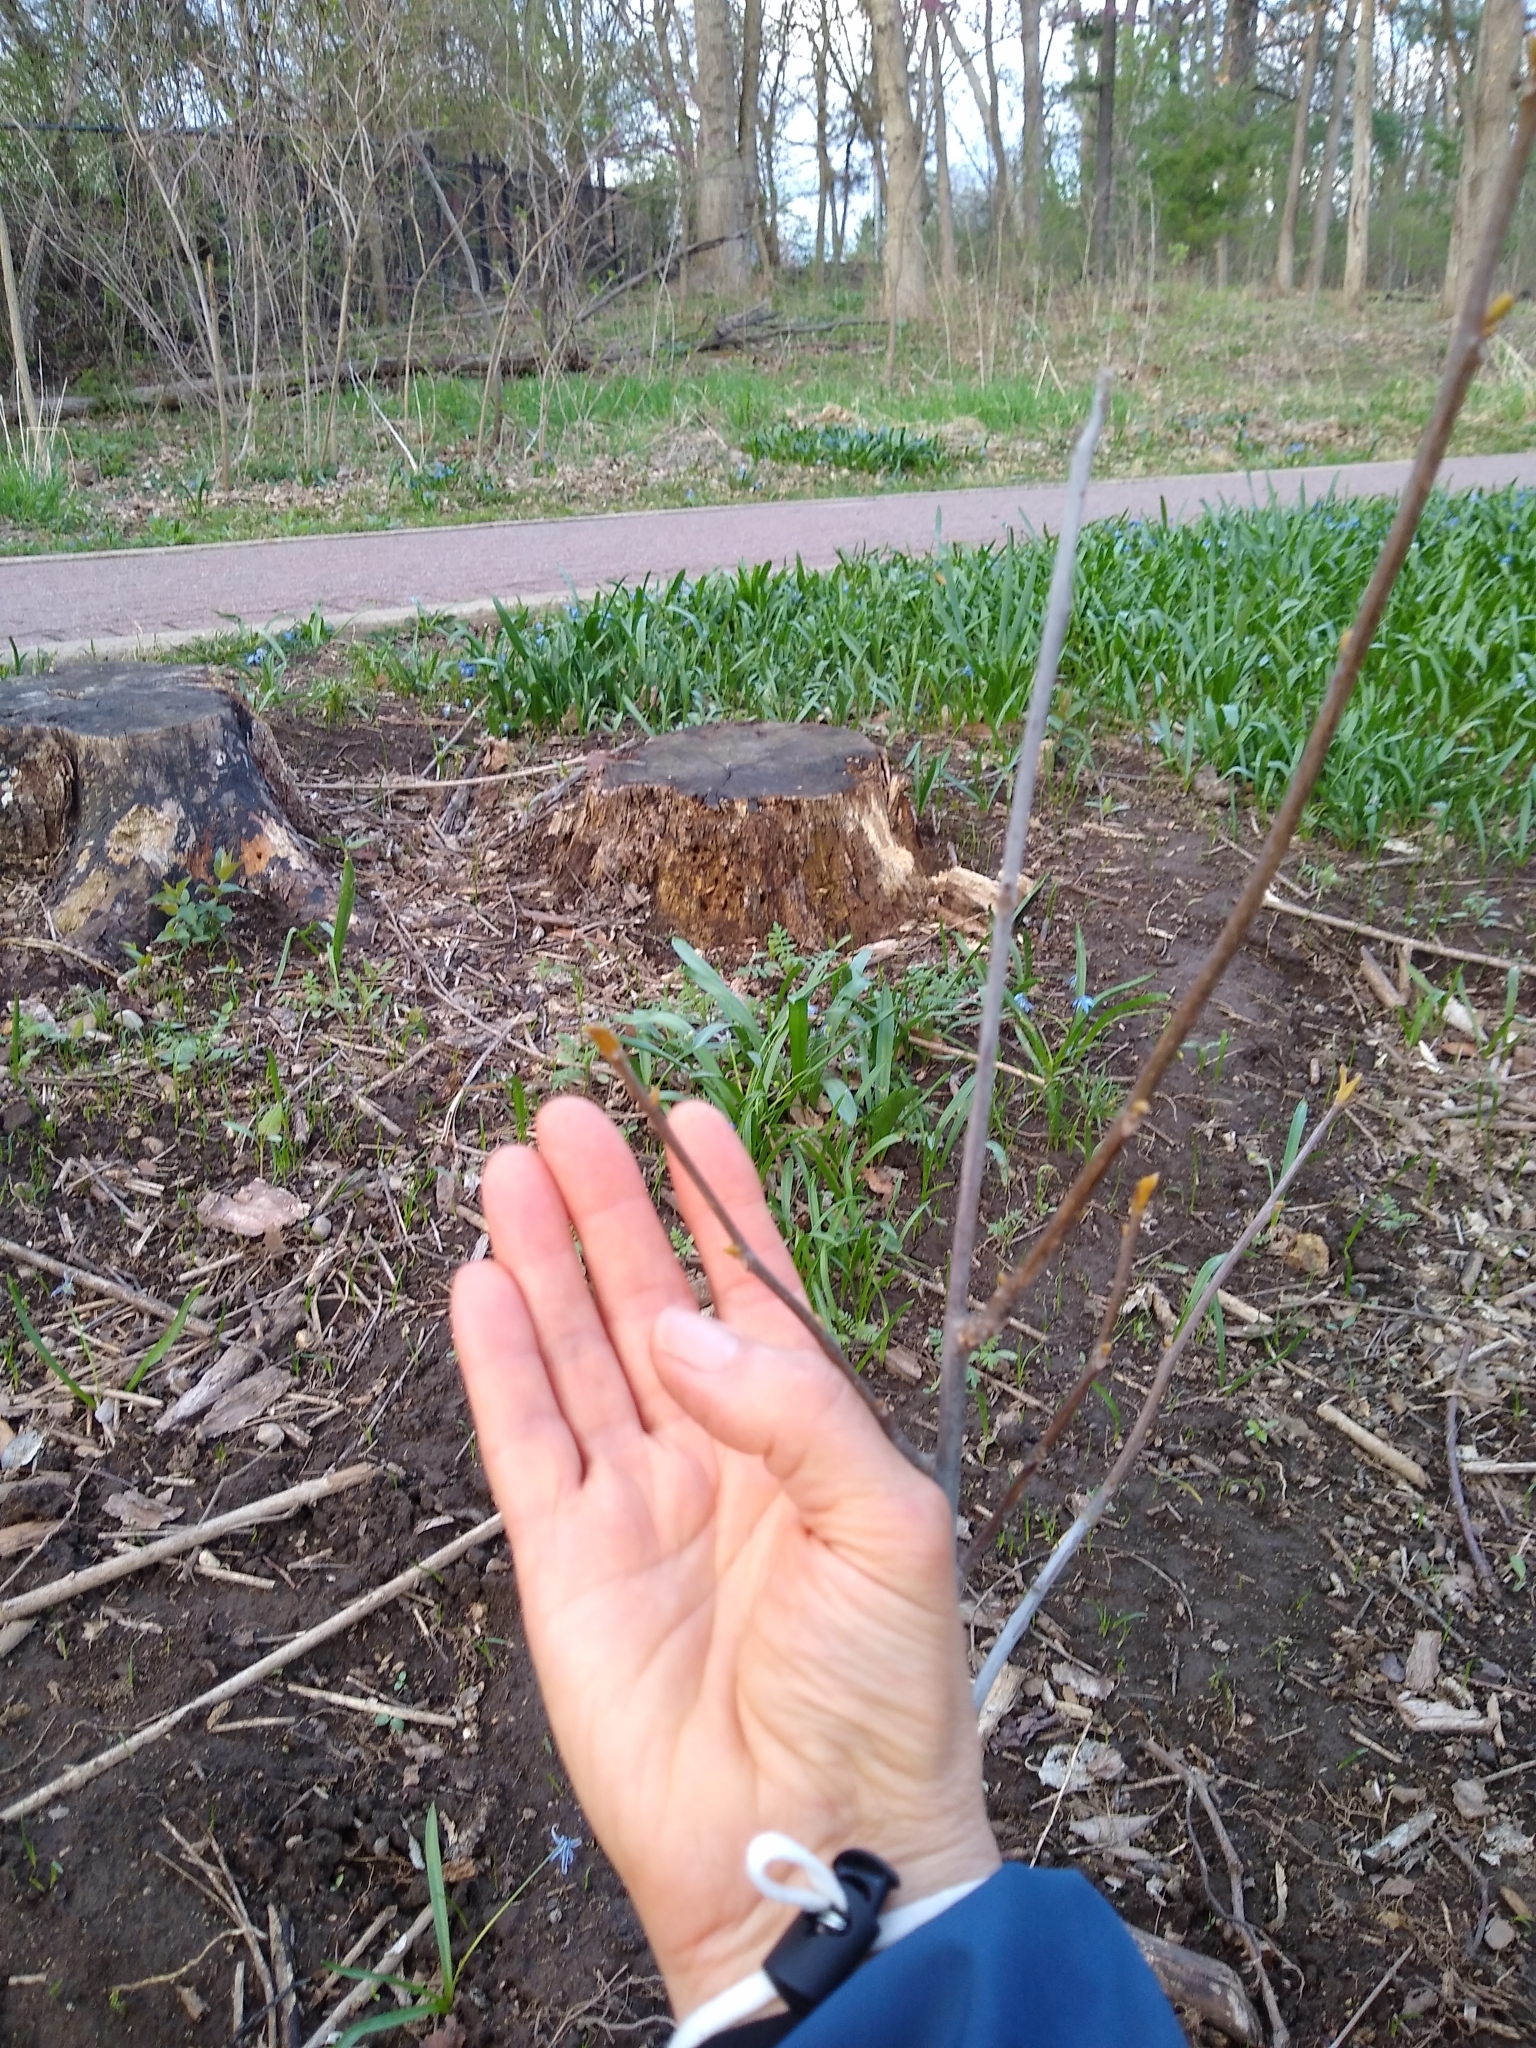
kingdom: Plantae
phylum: Tracheophyta
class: Magnoliopsida
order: Fagales
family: Juglandaceae
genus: Carya
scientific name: Carya cordiformis
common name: Bitternut hickory
